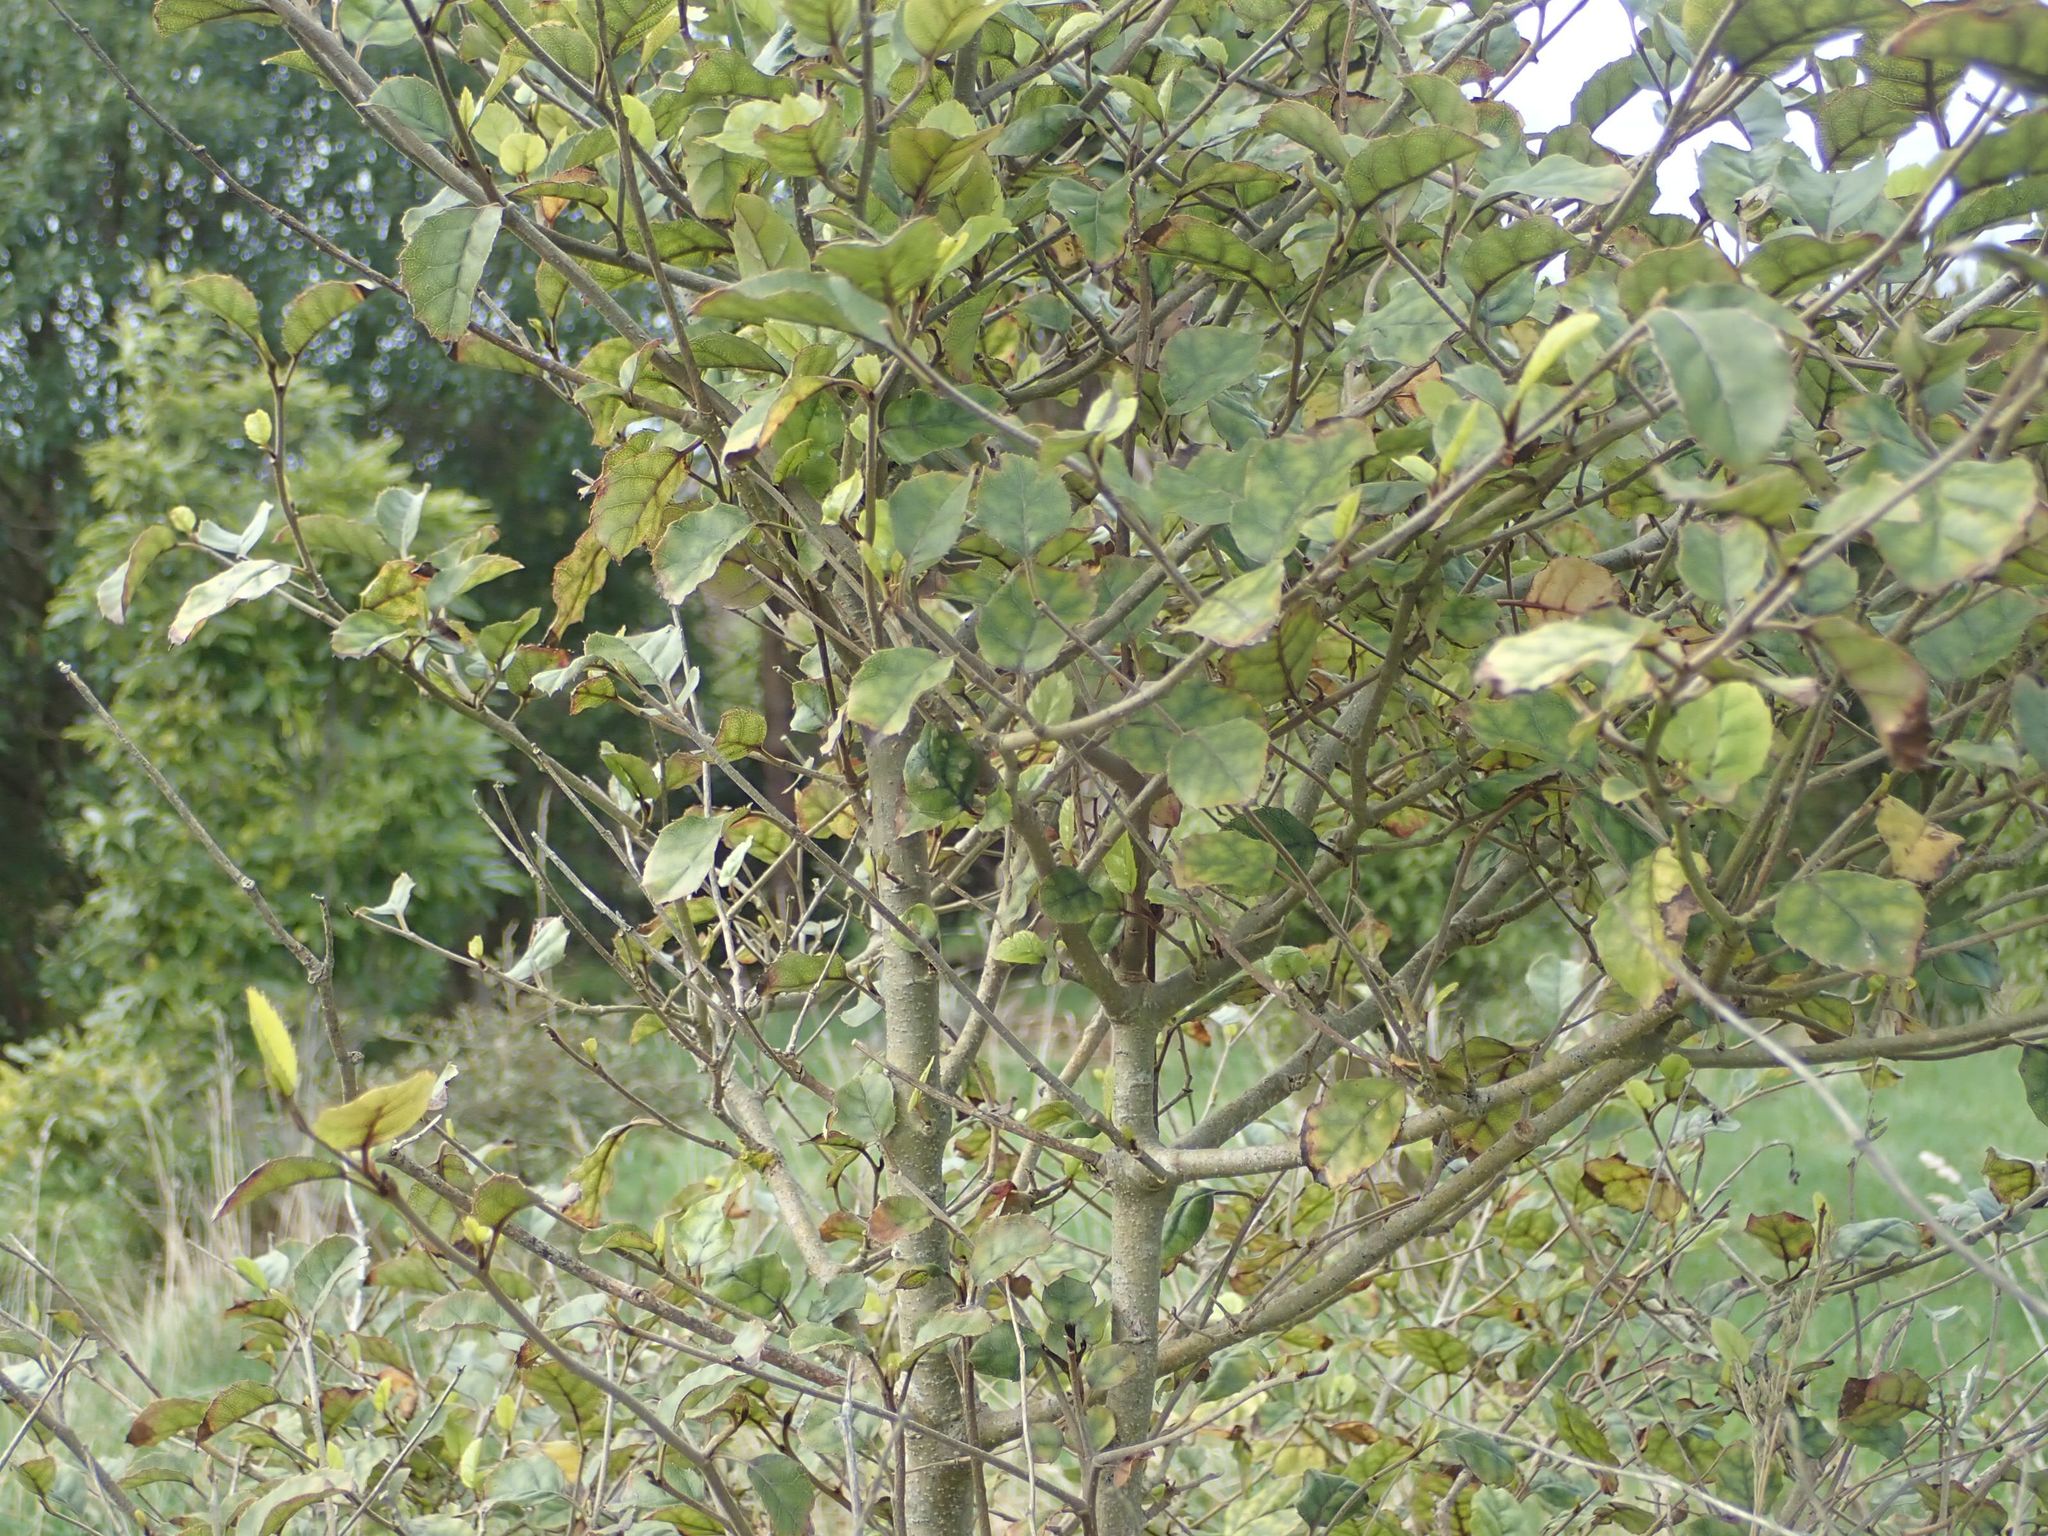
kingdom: Plantae
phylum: Tracheophyta
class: Magnoliopsida
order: Asterales
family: Rousseaceae
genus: Carpodetus
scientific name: Carpodetus serratus
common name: White mapau
